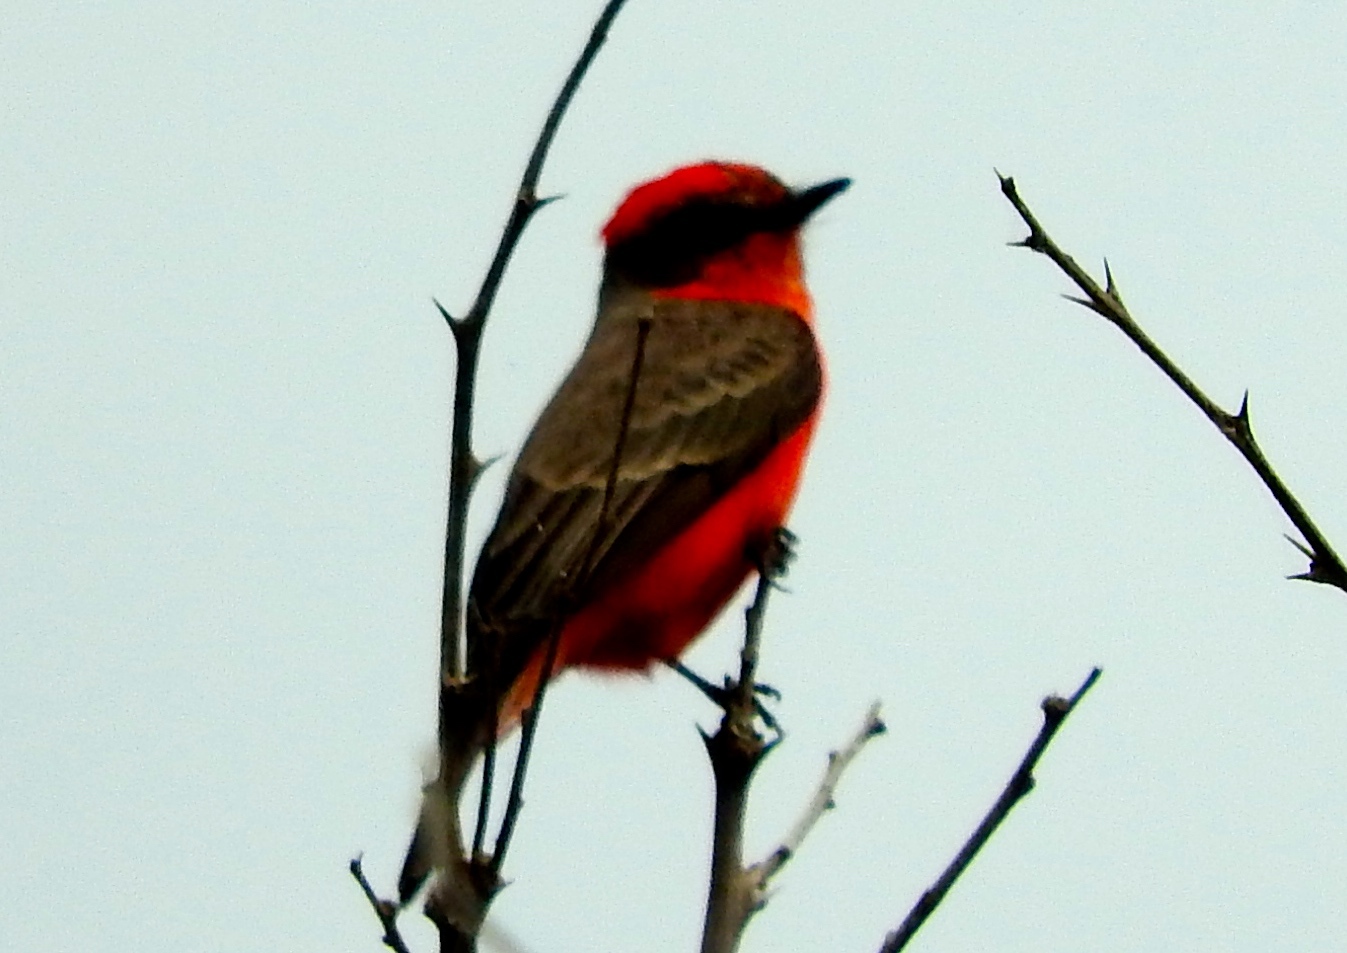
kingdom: Animalia
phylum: Chordata
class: Aves
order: Passeriformes
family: Tyrannidae
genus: Pyrocephalus
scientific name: Pyrocephalus rubinus
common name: Vermilion flycatcher
